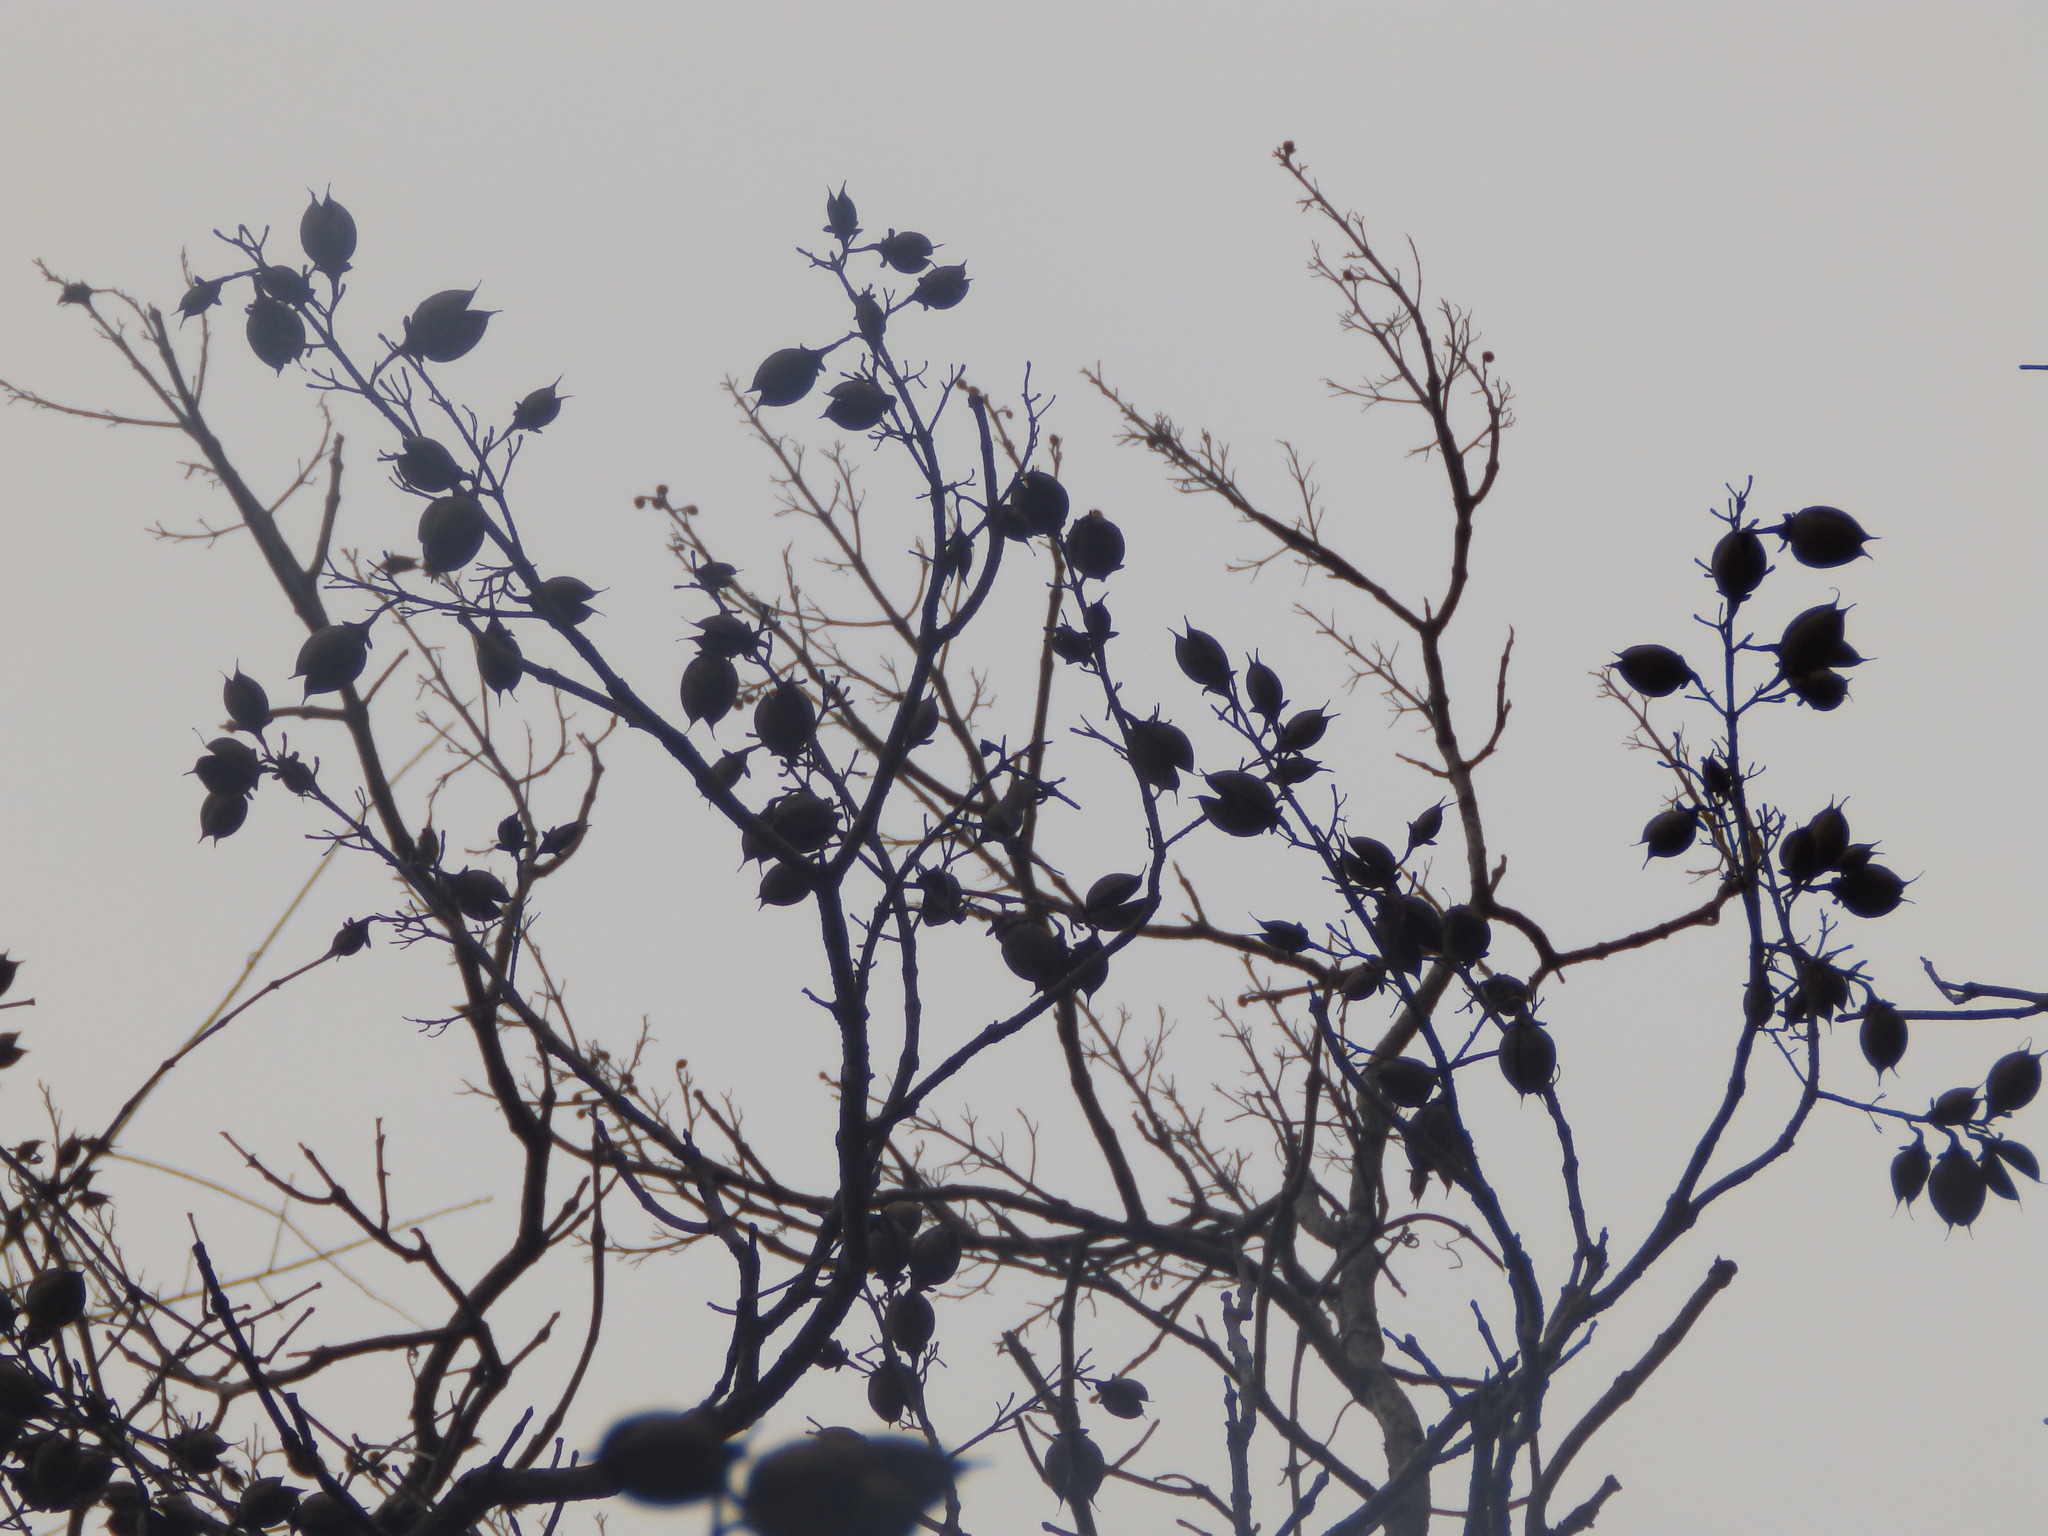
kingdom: Plantae
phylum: Tracheophyta
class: Magnoliopsida
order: Lamiales
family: Paulowniaceae
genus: Paulownia
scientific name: Paulownia tomentosa
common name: Foxglove-tree
